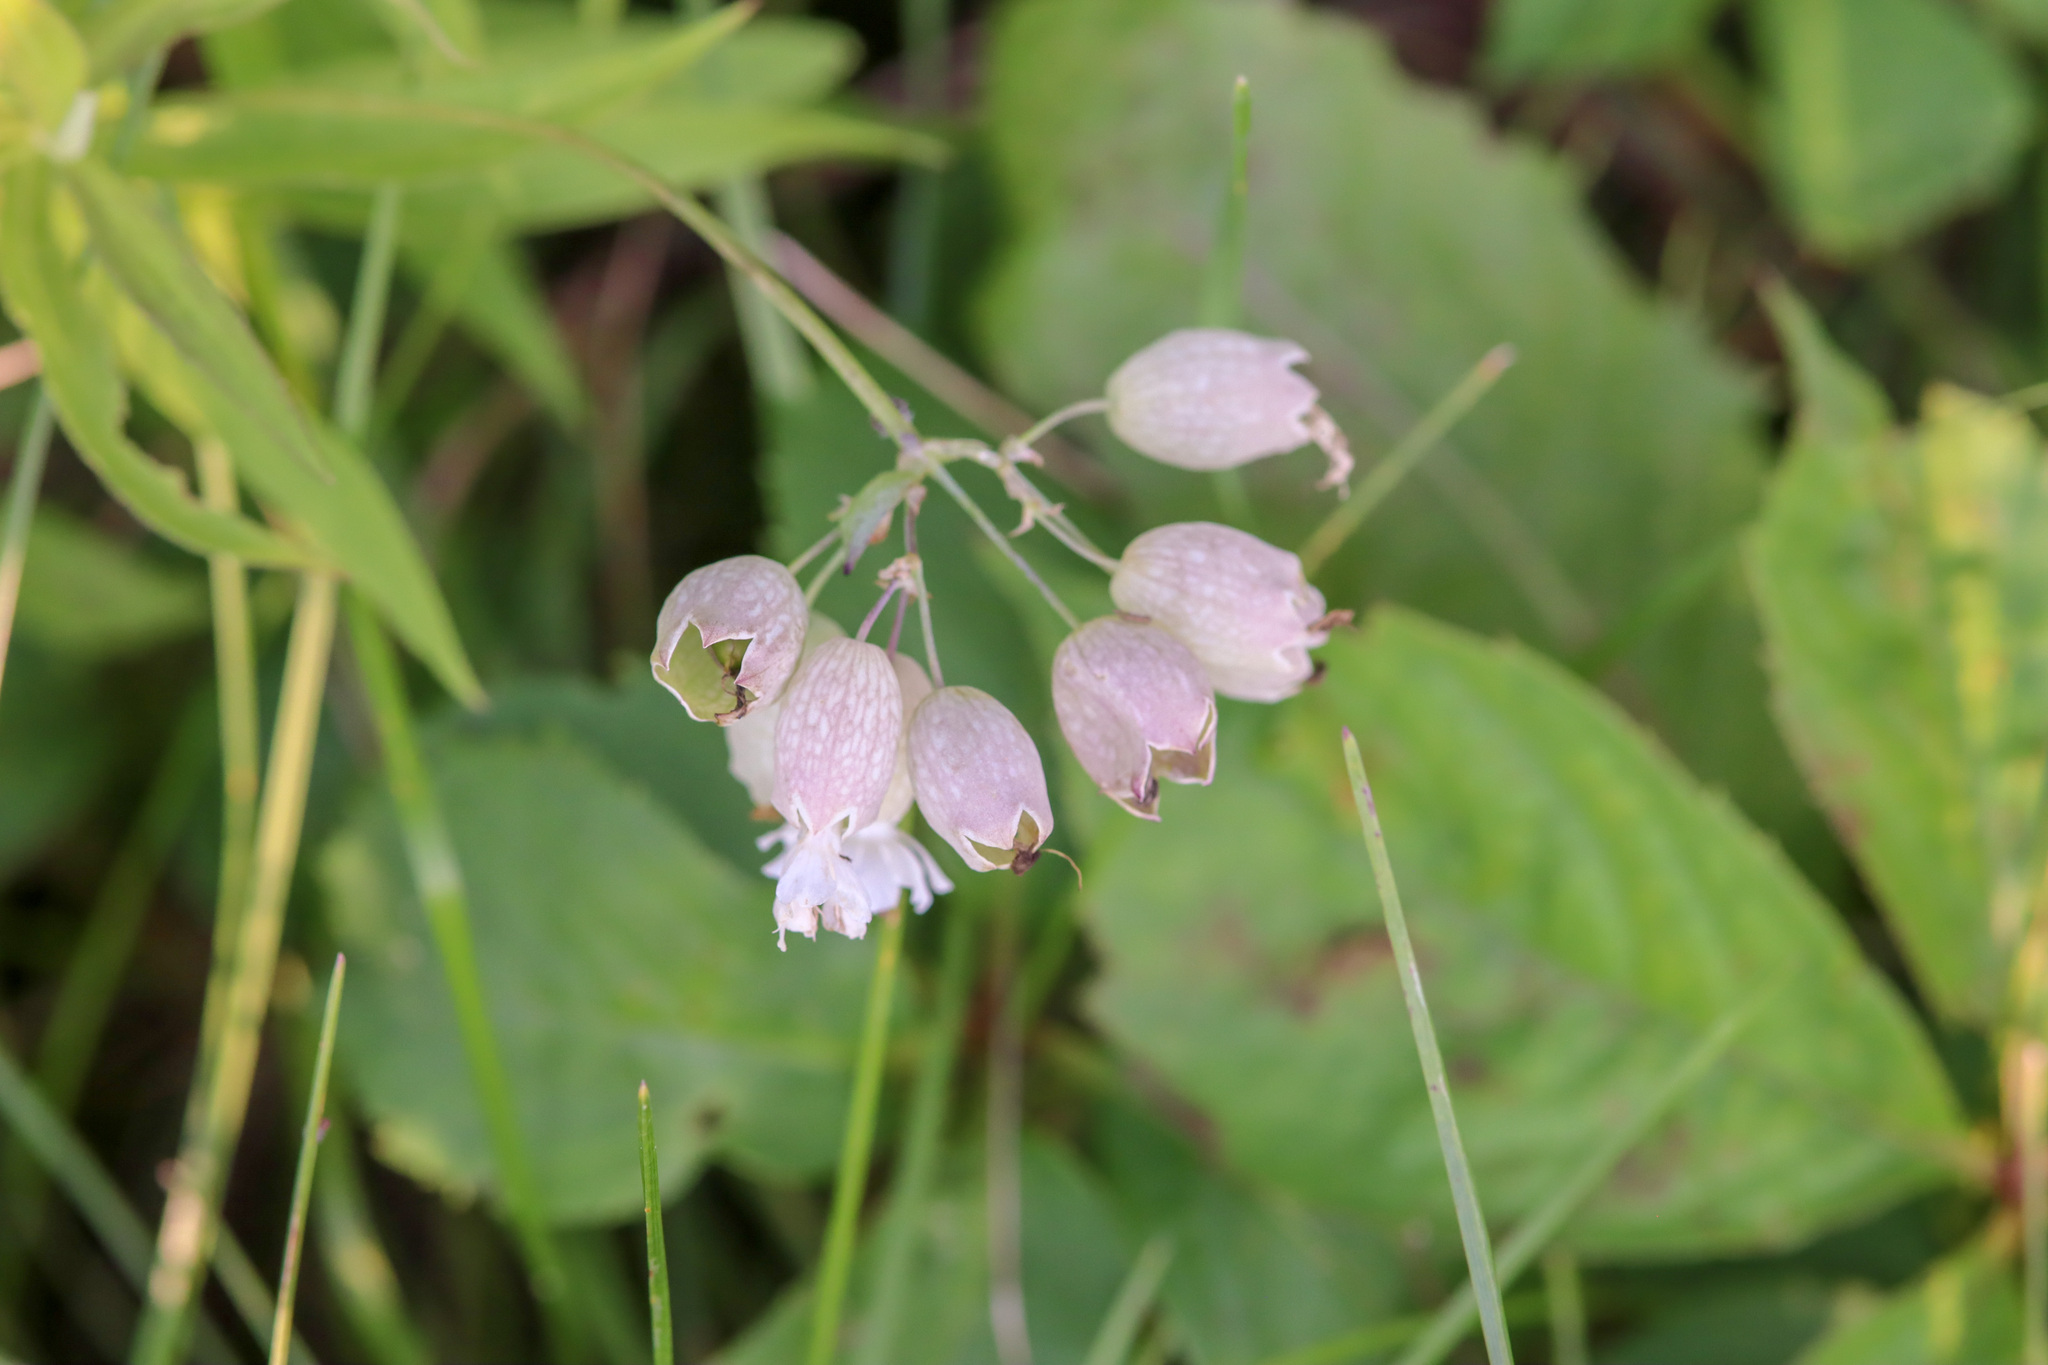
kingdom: Plantae
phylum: Tracheophyta
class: Magnoliopsida
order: Caryophyllales
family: Caryophyllaceae
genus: Silene
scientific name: Silene vulgaris
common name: Bladder campion
